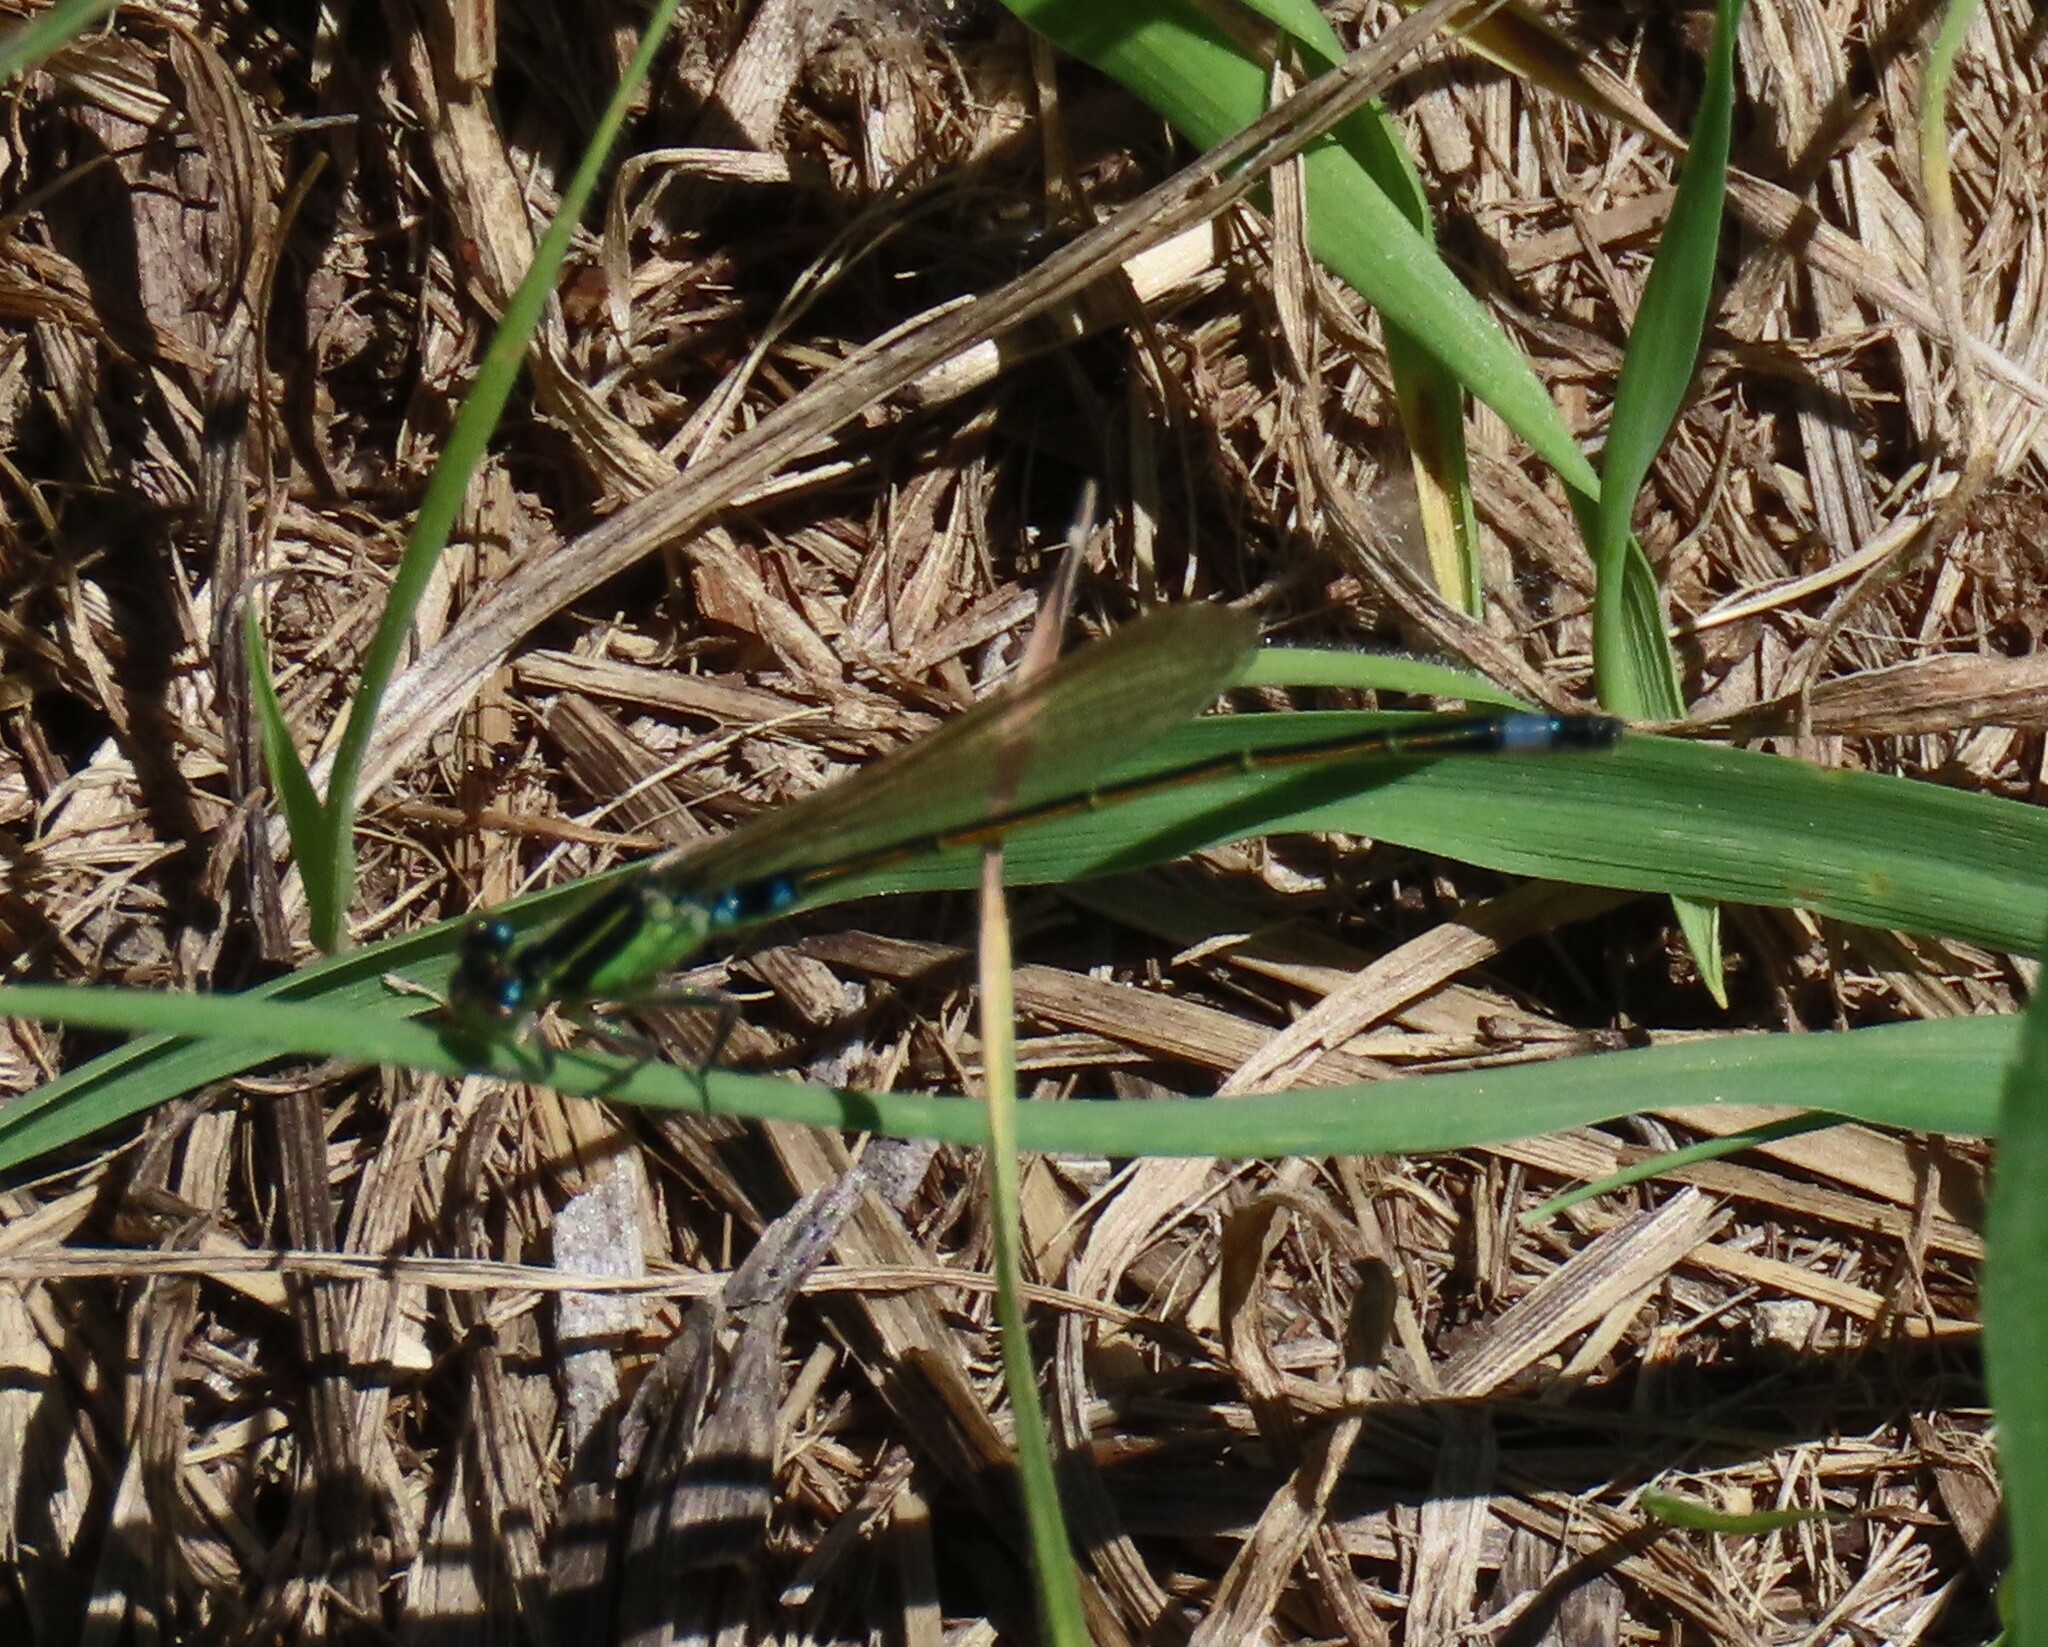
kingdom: Animalia
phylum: Arthropoda
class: Insecta
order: Odonata
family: Coenagrionidae
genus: Ischnura
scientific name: Ischnura senegalensis
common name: Tropical bluetail
